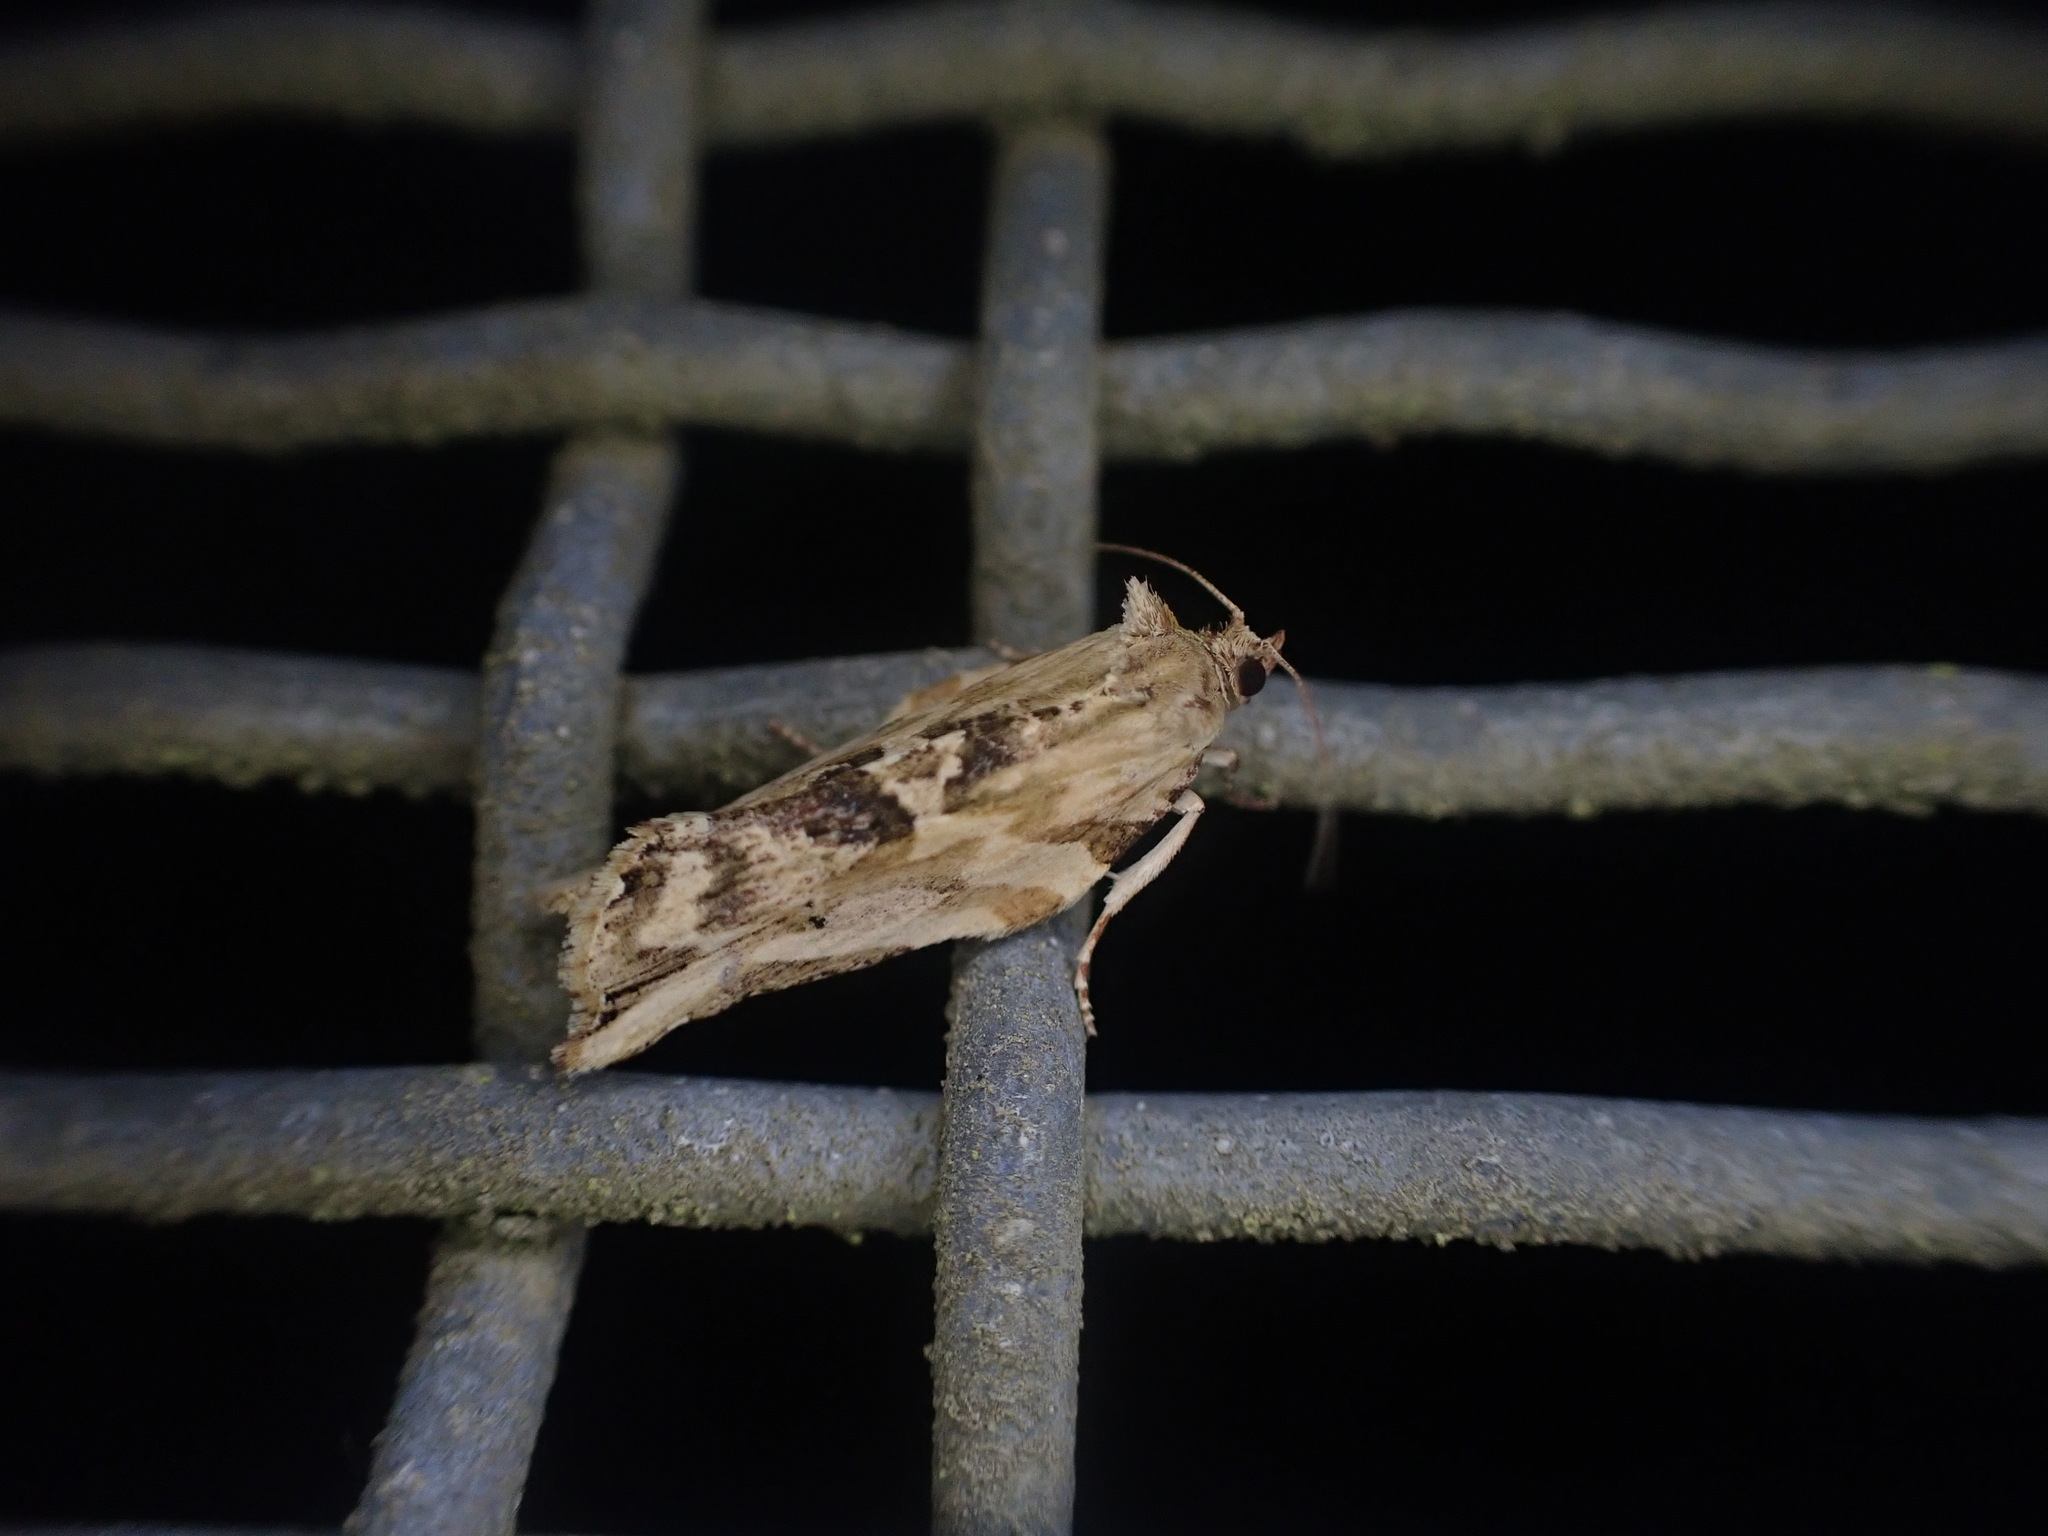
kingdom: Animalia
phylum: Arthropoda
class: Insecta
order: Lepidoptera
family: Tortricidae
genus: Epalxiphora
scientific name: Epalxiphora axenana
